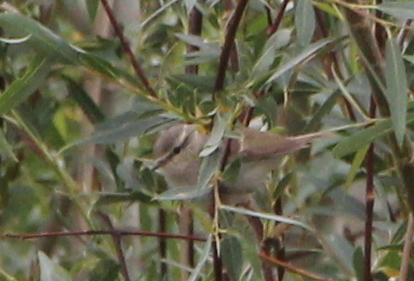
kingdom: Animalia
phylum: Chordata
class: Aves
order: Passeriformes
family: Phylloscopidae
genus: Phylloscopus
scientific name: Phylloscopus humei
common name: Hume's leaf warbler
